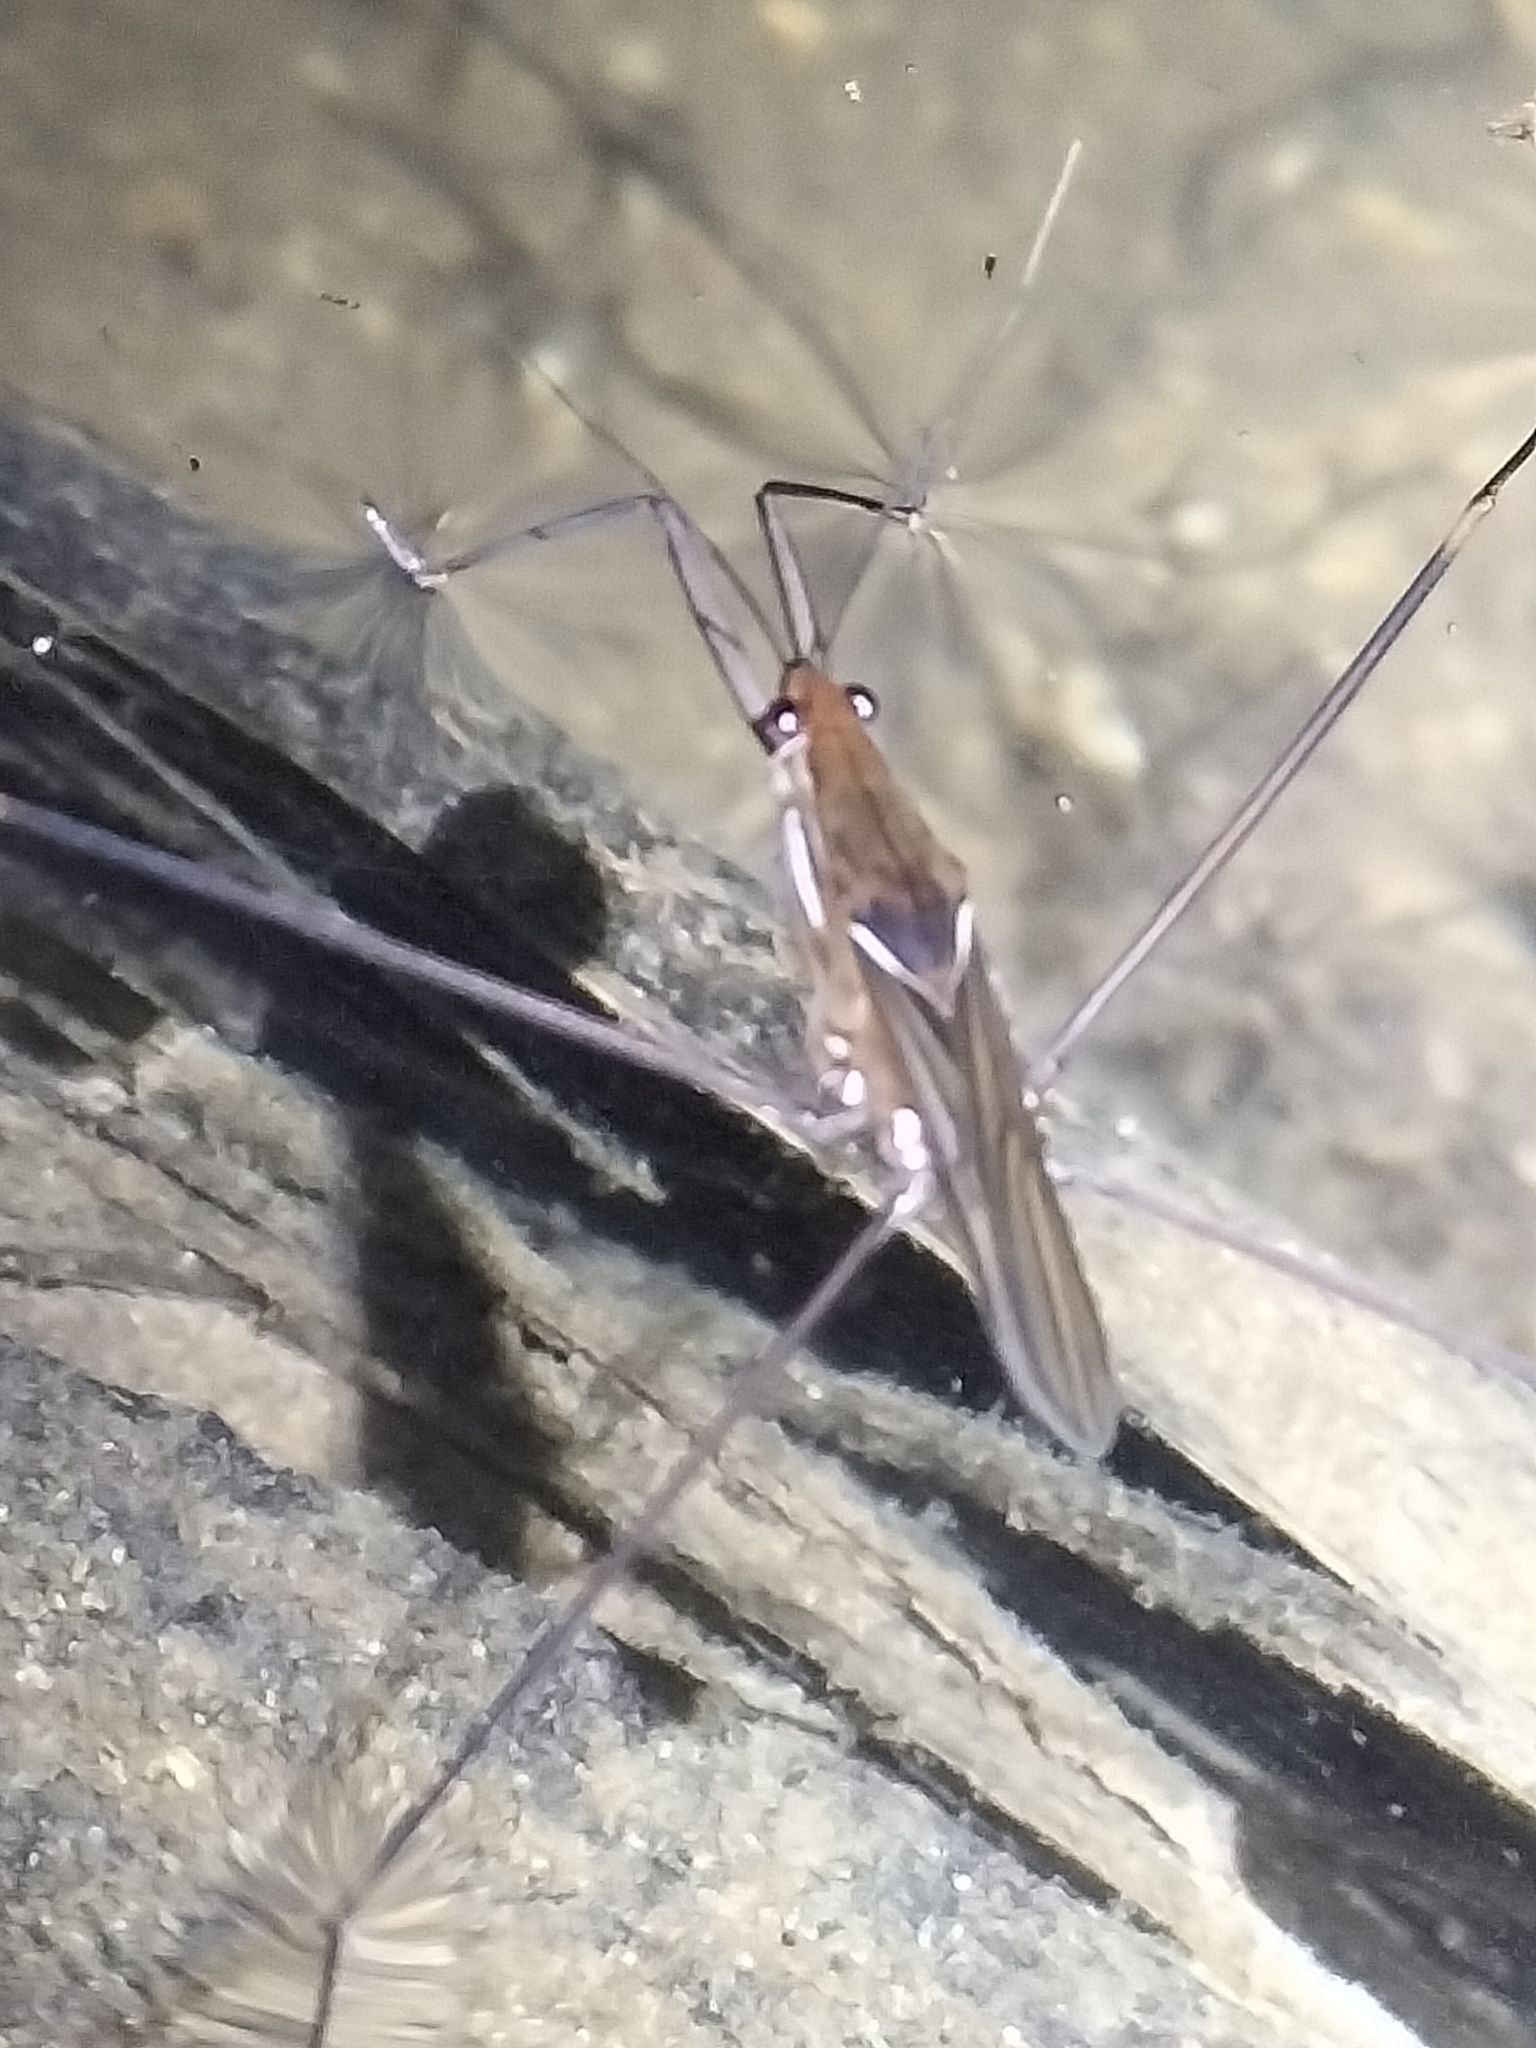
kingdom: Animalia
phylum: Arthropoda
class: Insecta
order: Hemiptera
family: Gerridae
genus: Limnometra
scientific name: Limnometra cursitans
